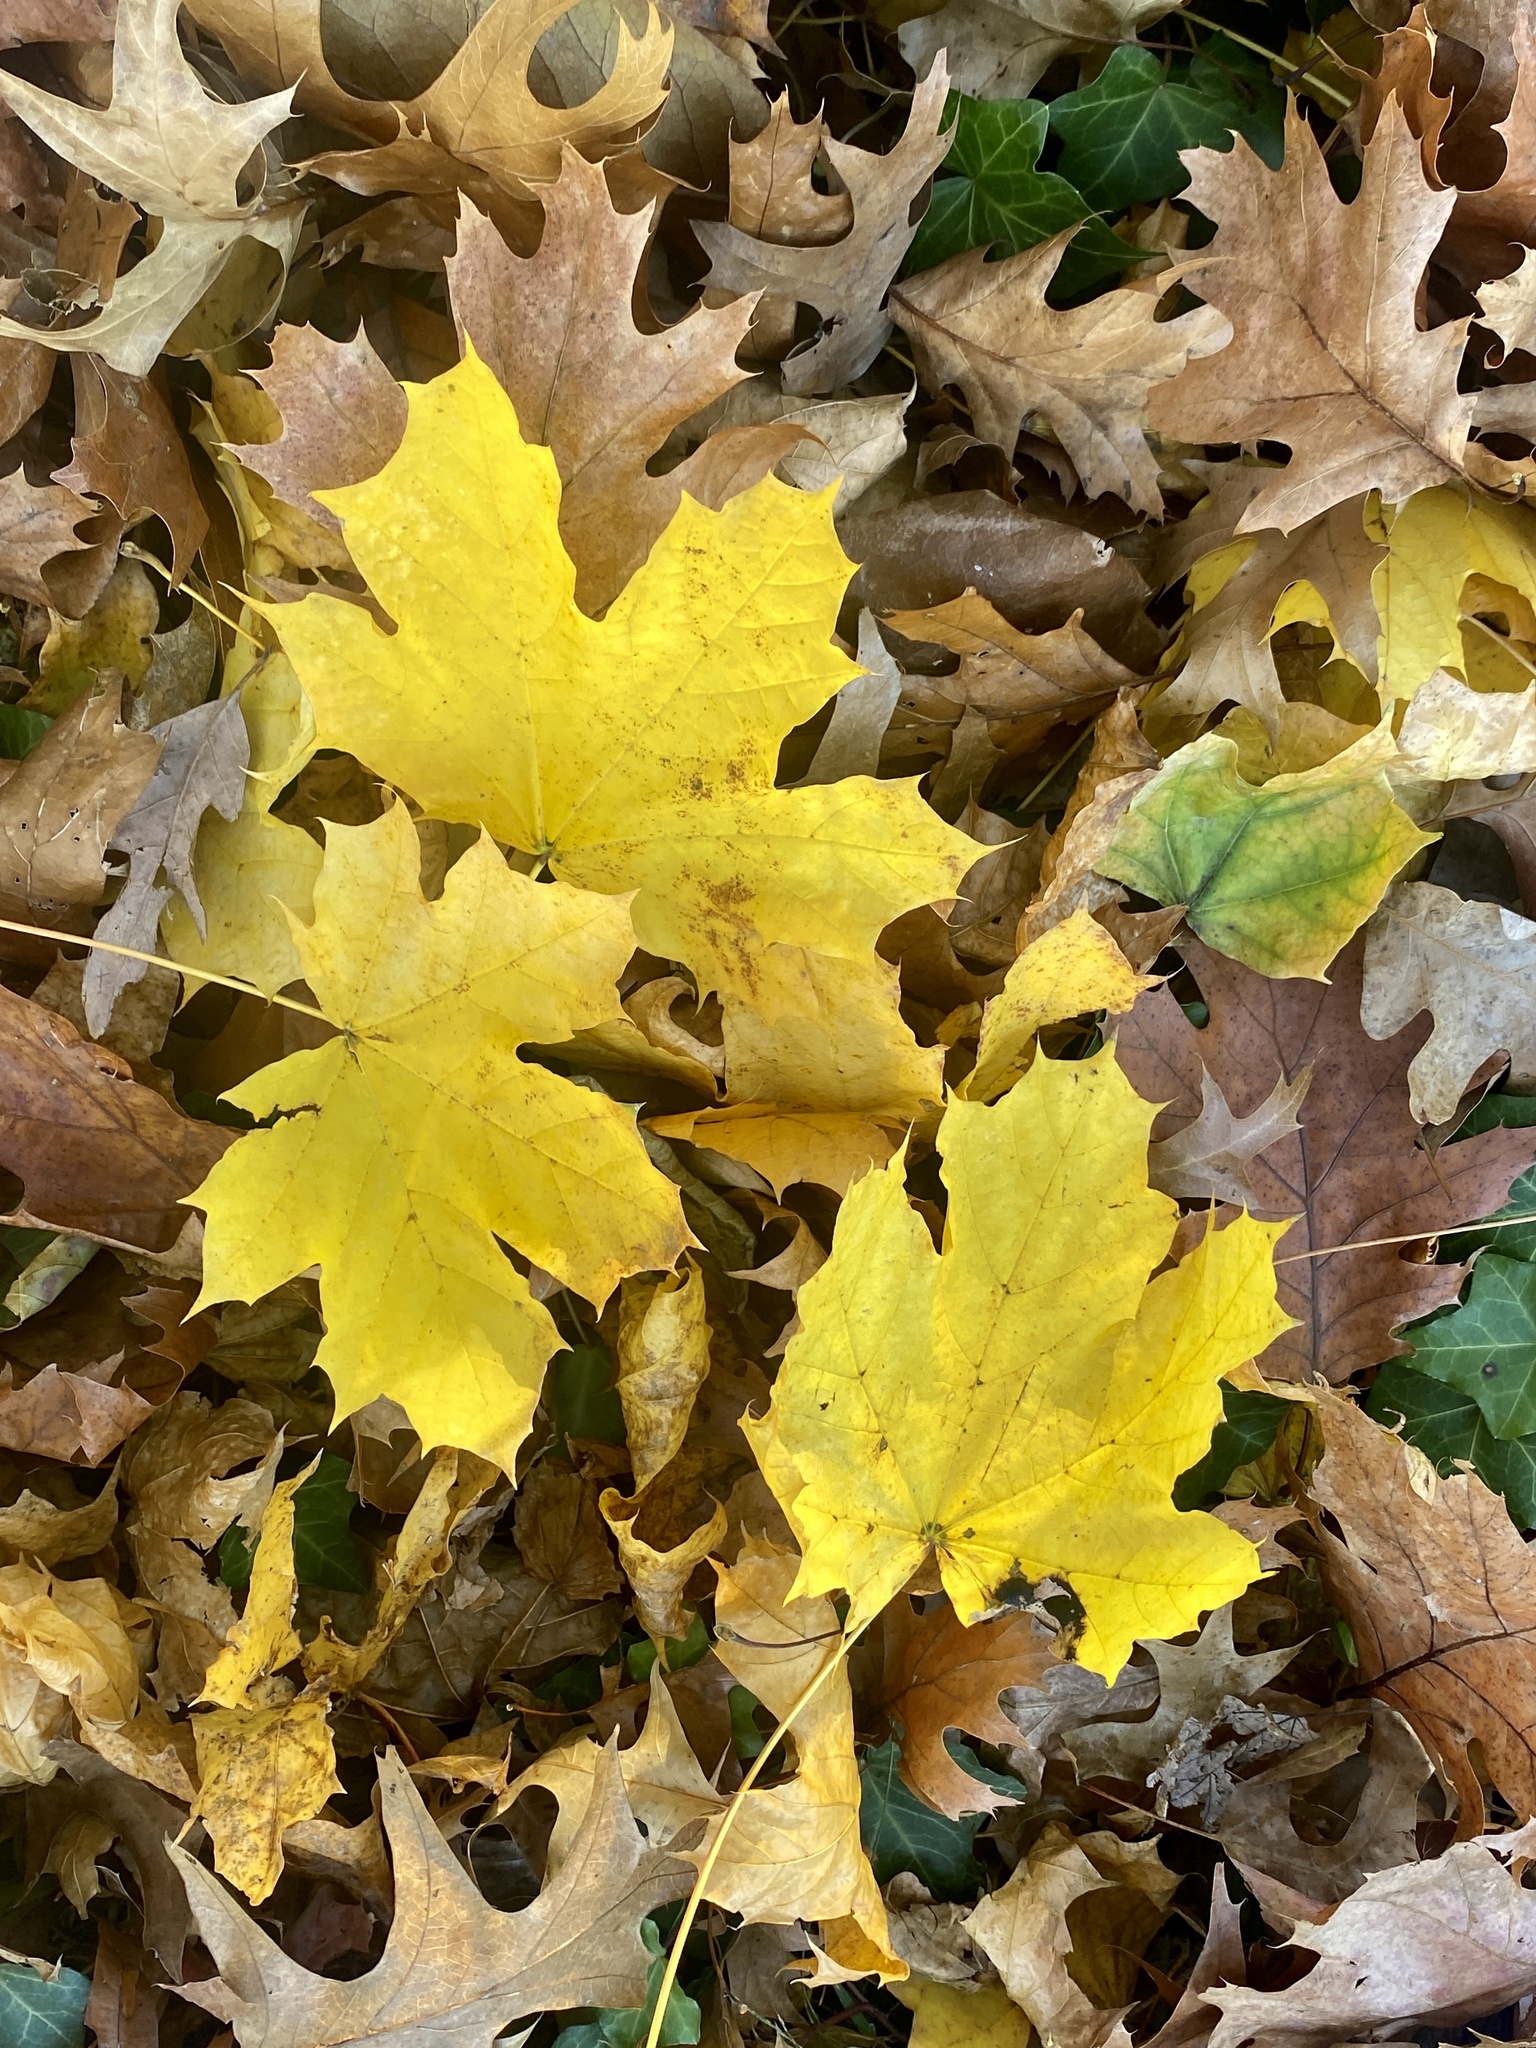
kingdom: Plantae
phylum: Tracheophyta
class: Magnoliopsida
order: Sapindales
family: Sapindaceae
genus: Acer
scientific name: Acer platanoides
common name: Norway maple
